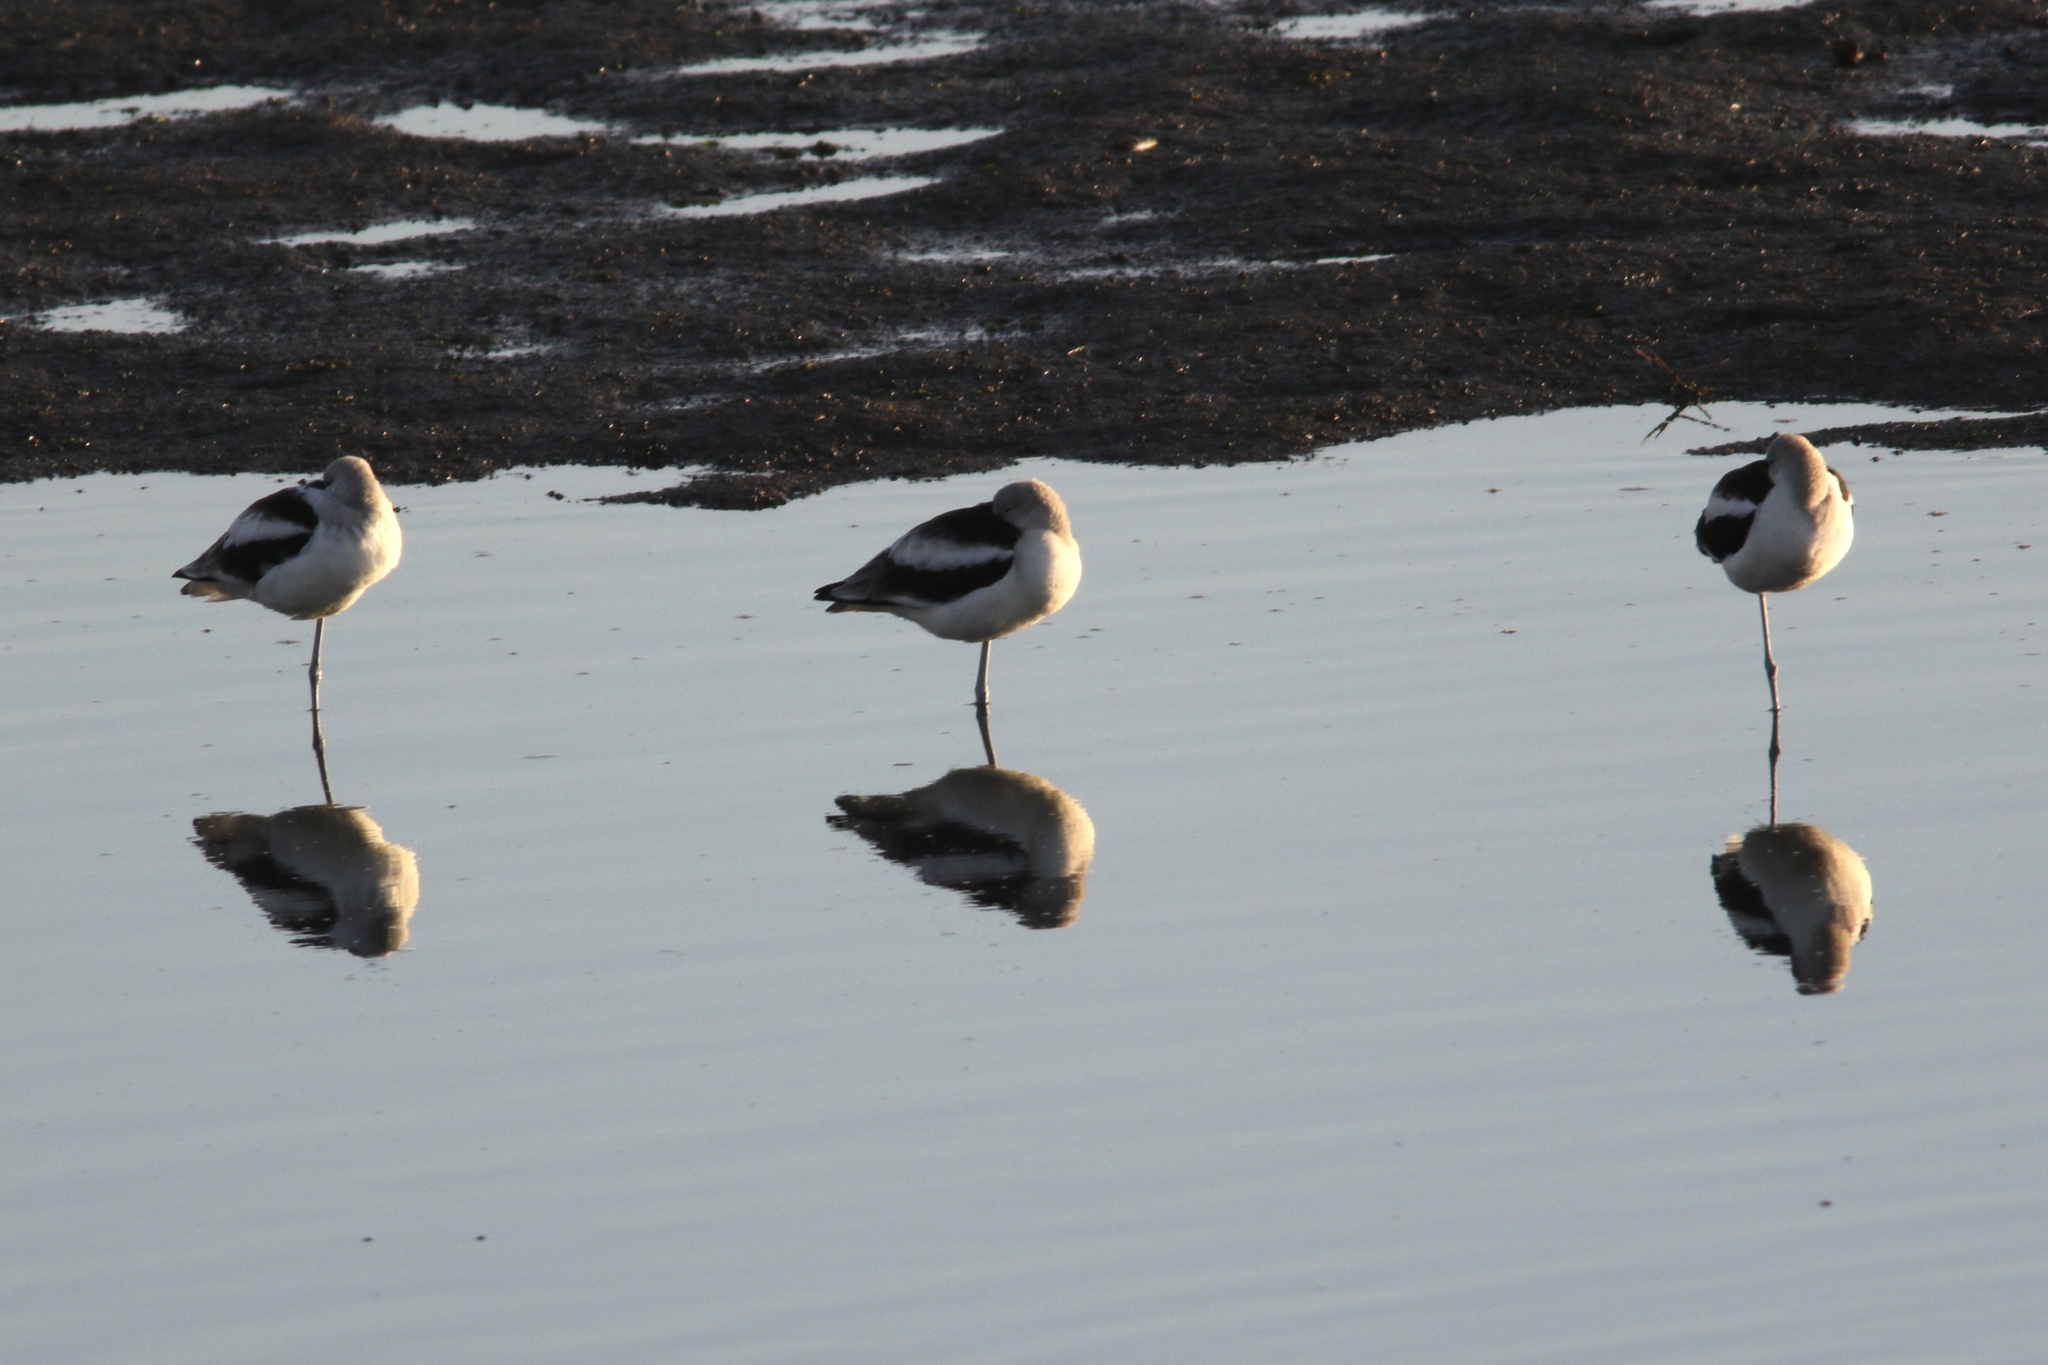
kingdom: Animalia
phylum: Chordata
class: Aves
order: Charadriiformes
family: Recurvirostridae
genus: Recurvirostra
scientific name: Recurvirostra americana
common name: American avocet
